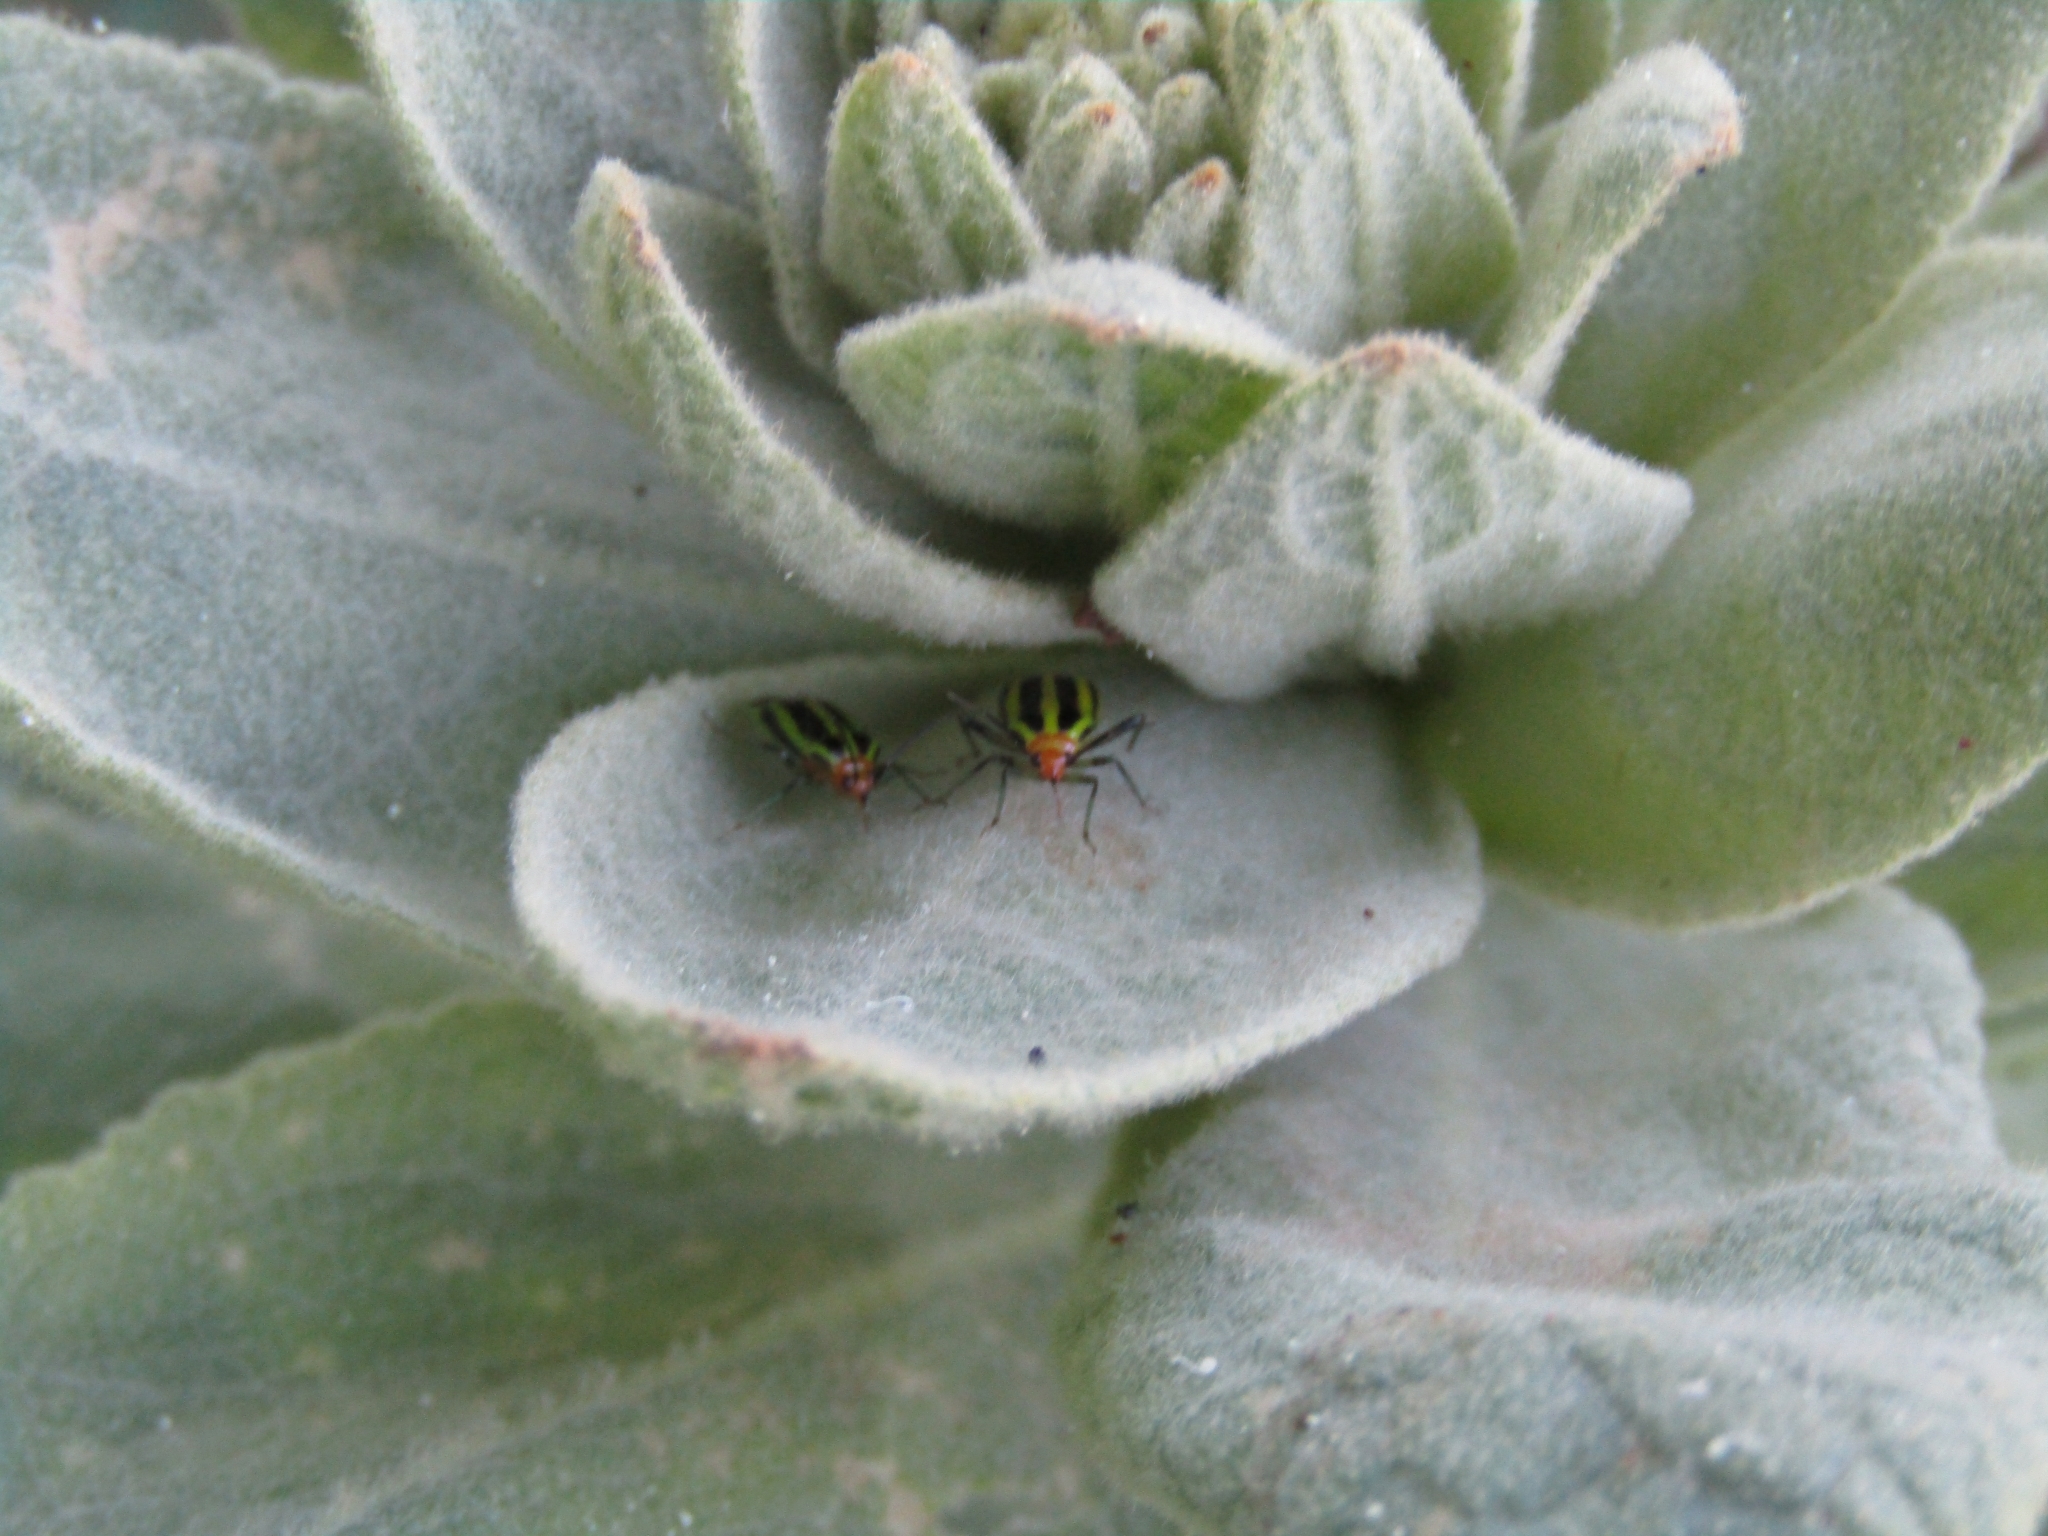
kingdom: Animalia
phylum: Arthropoda
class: Insecta
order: Hemiptera
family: Miridae
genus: Poecilocapsus
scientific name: Poecilocapsus lineatus
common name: Four-lined plant bug
